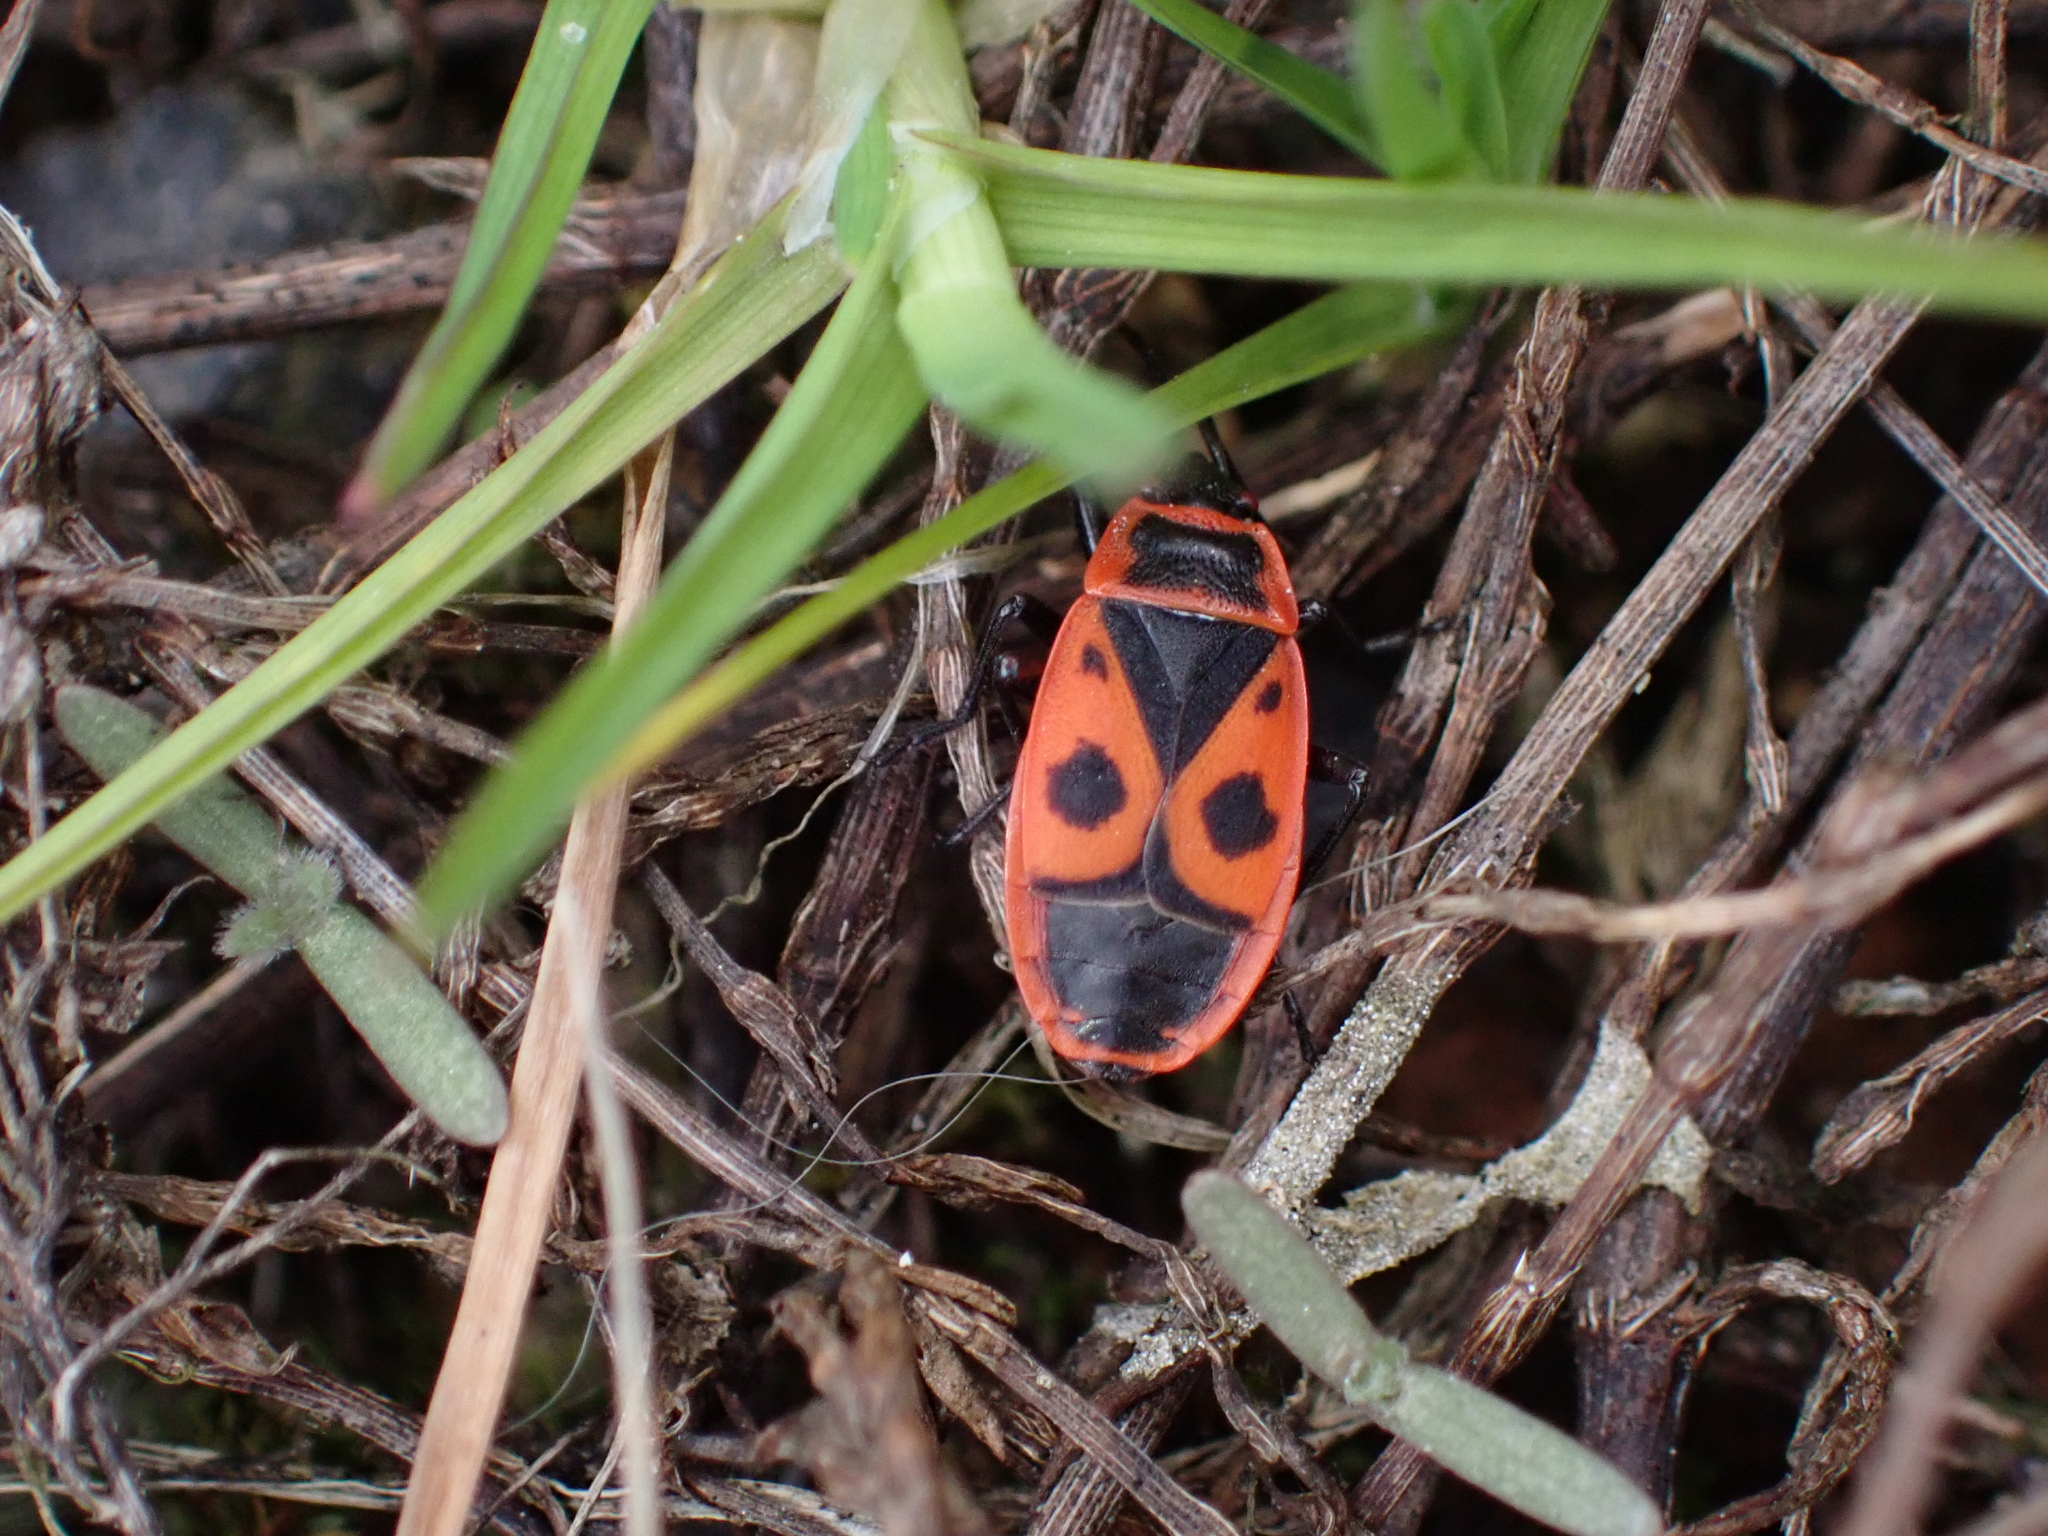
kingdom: Animalia
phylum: Arthropoda
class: Insecta
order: Hemiptera
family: Pyrrhocoridae
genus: Pyrrhocoris
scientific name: Pyrrhocoris apterus
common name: Firebug
